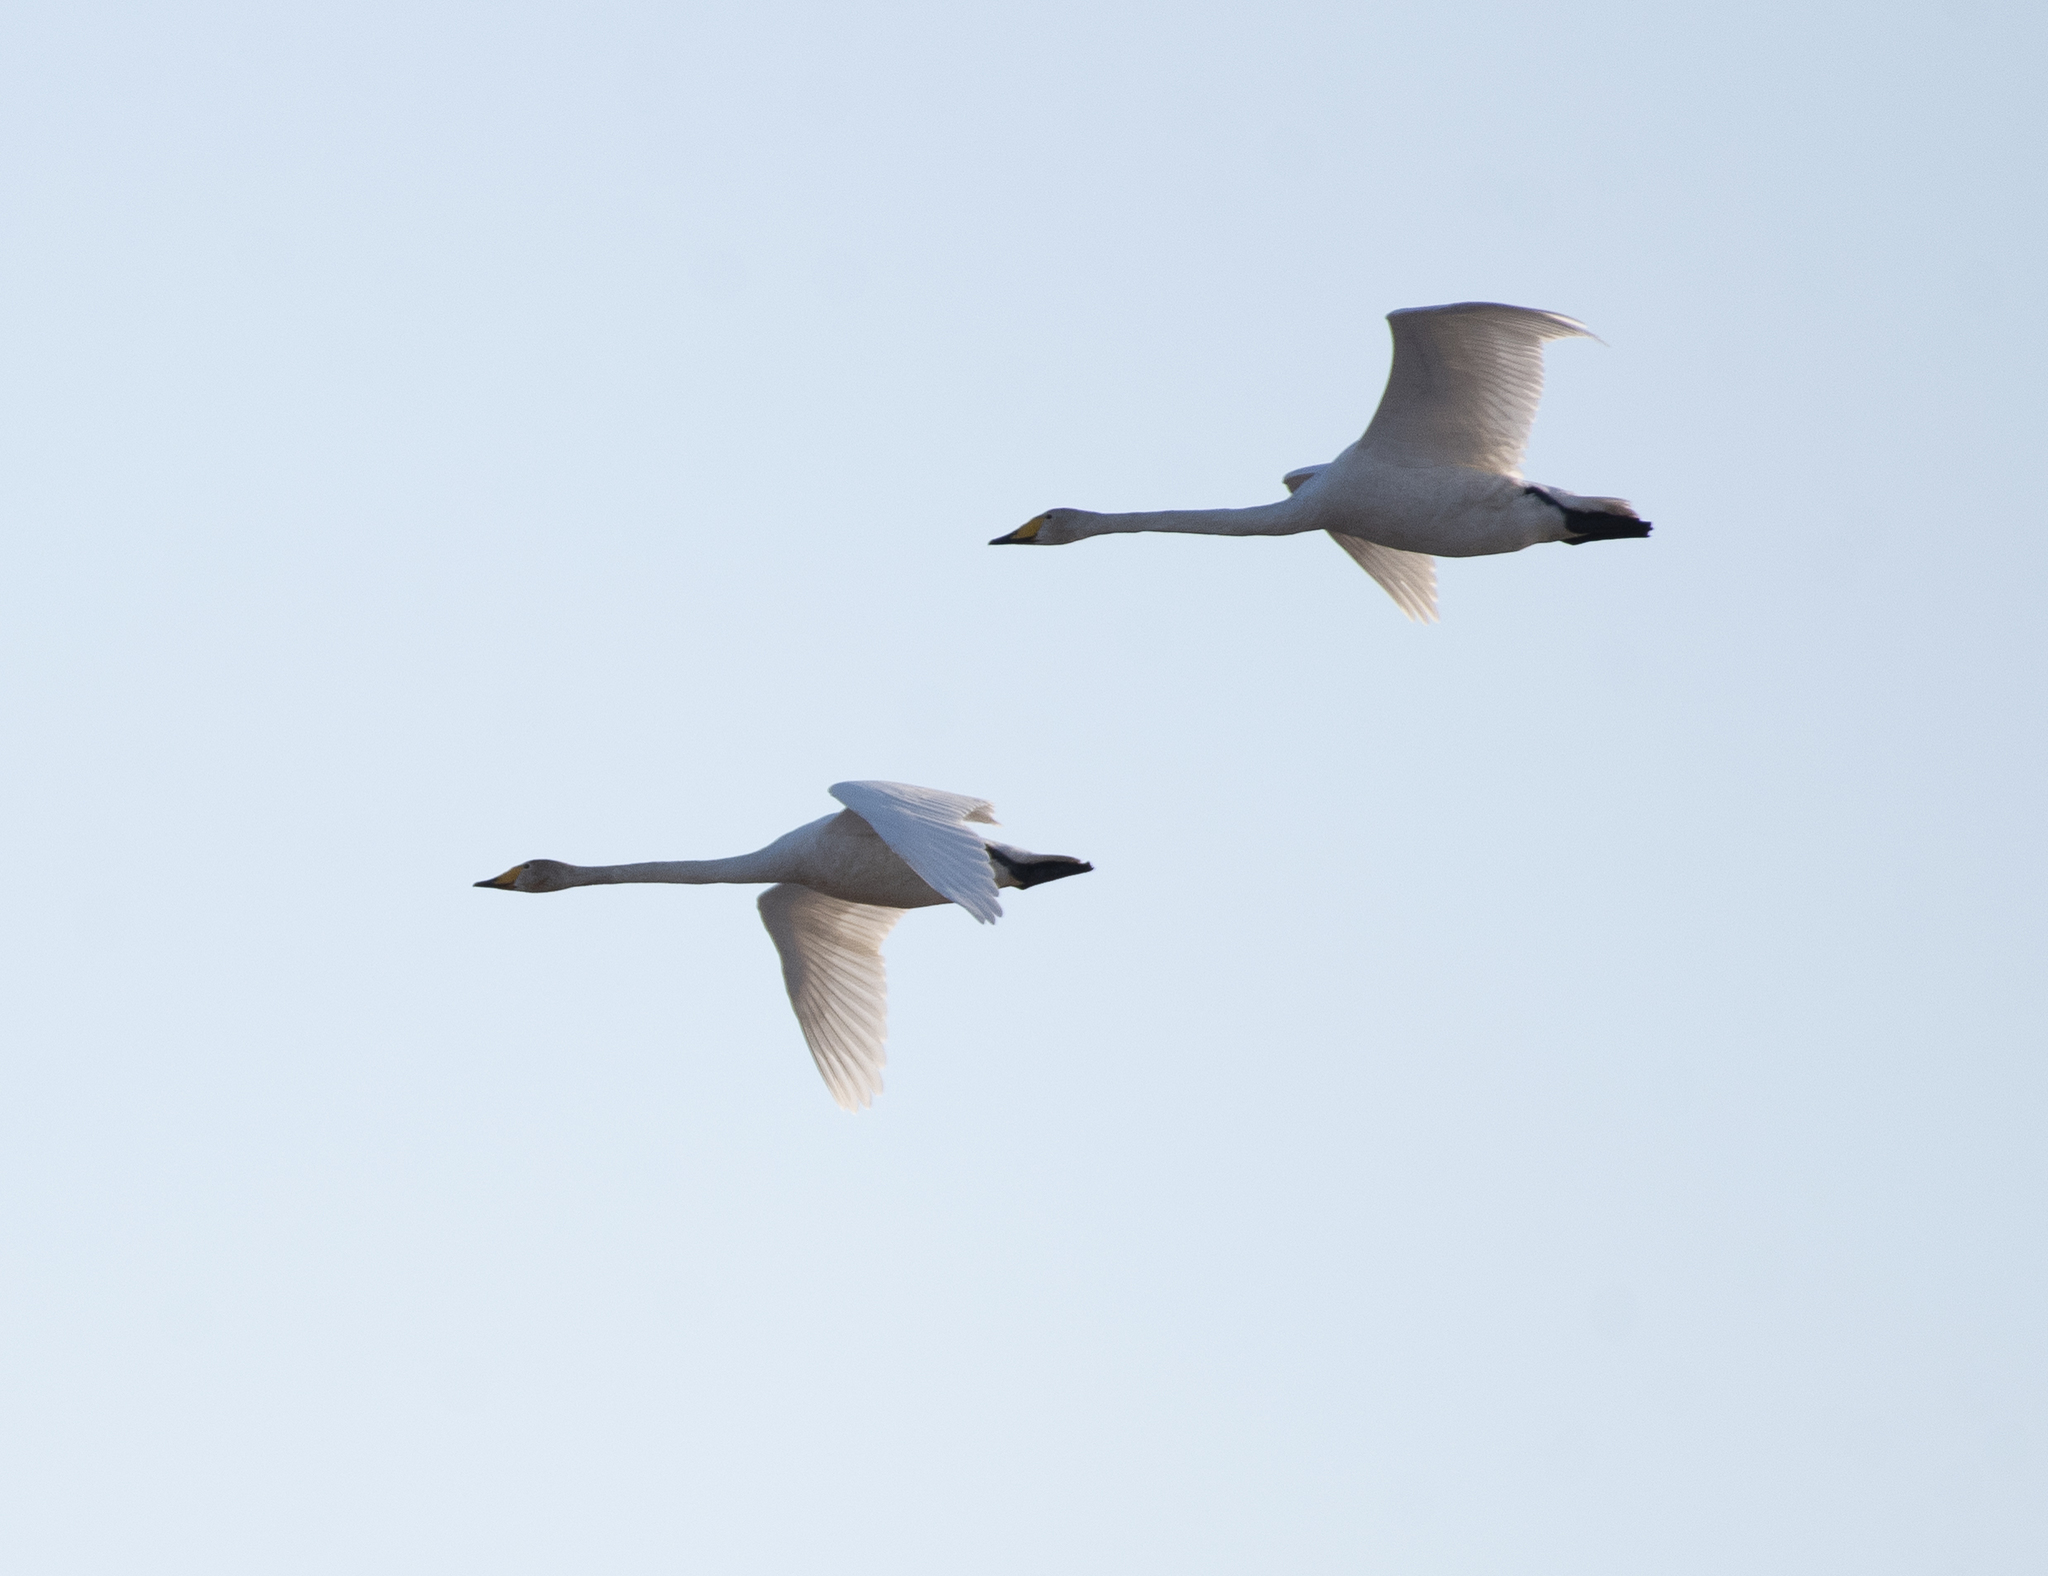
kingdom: Animalia
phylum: Chordata
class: Aves
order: Anseriformes
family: Anatidae
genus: Cygnus
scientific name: Cygnus cygnus
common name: Whooper swan
